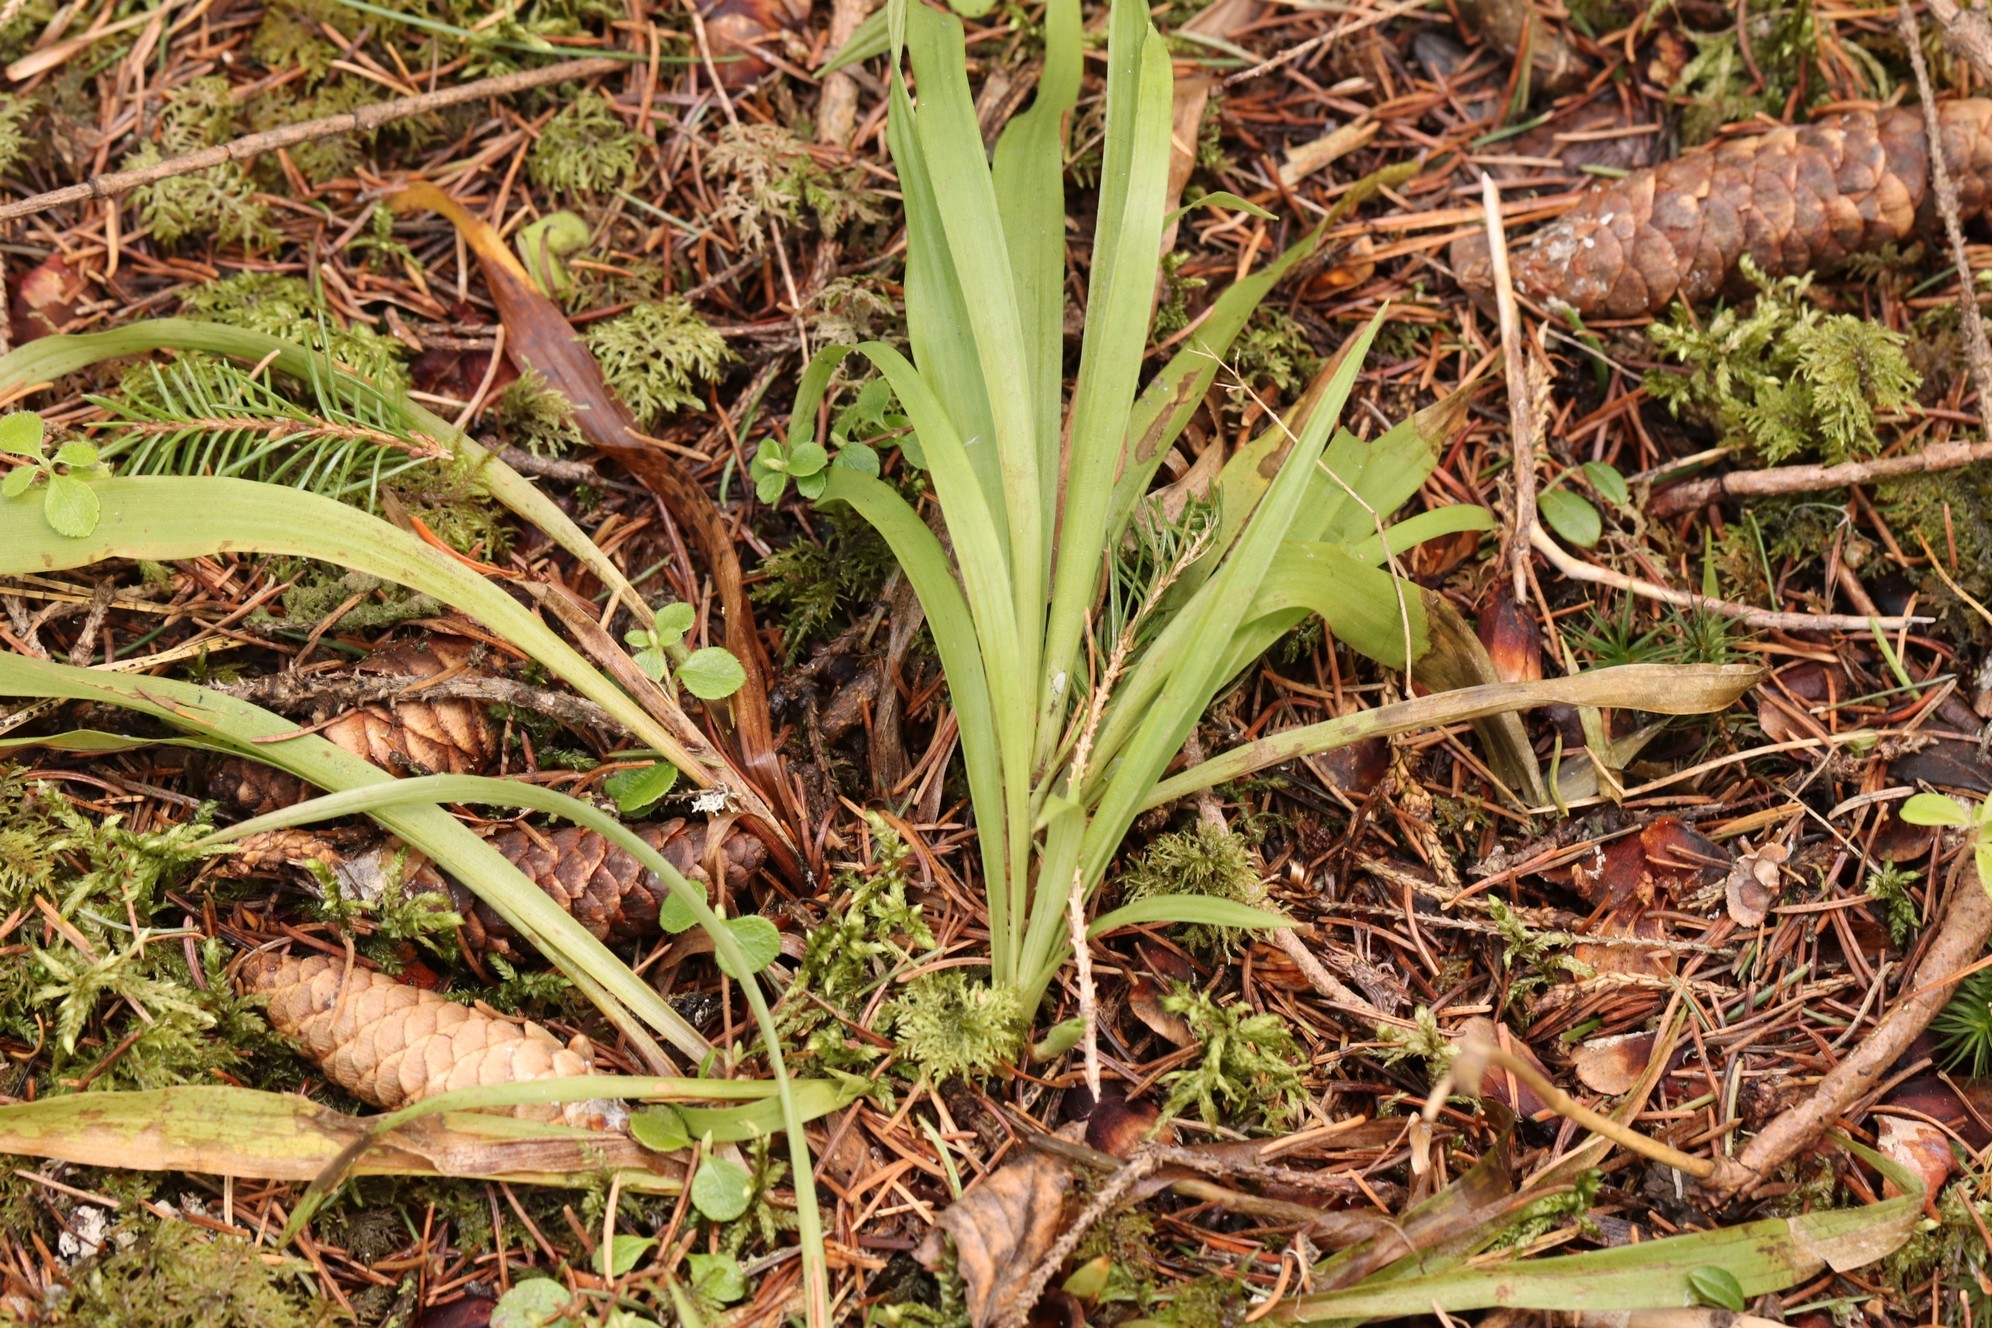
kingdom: Plantae
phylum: Tracheophyta
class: Liliopsida
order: Poales
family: Juncaceae
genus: Luzula
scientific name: Luzula pilosa
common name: Hairy wood-rush
